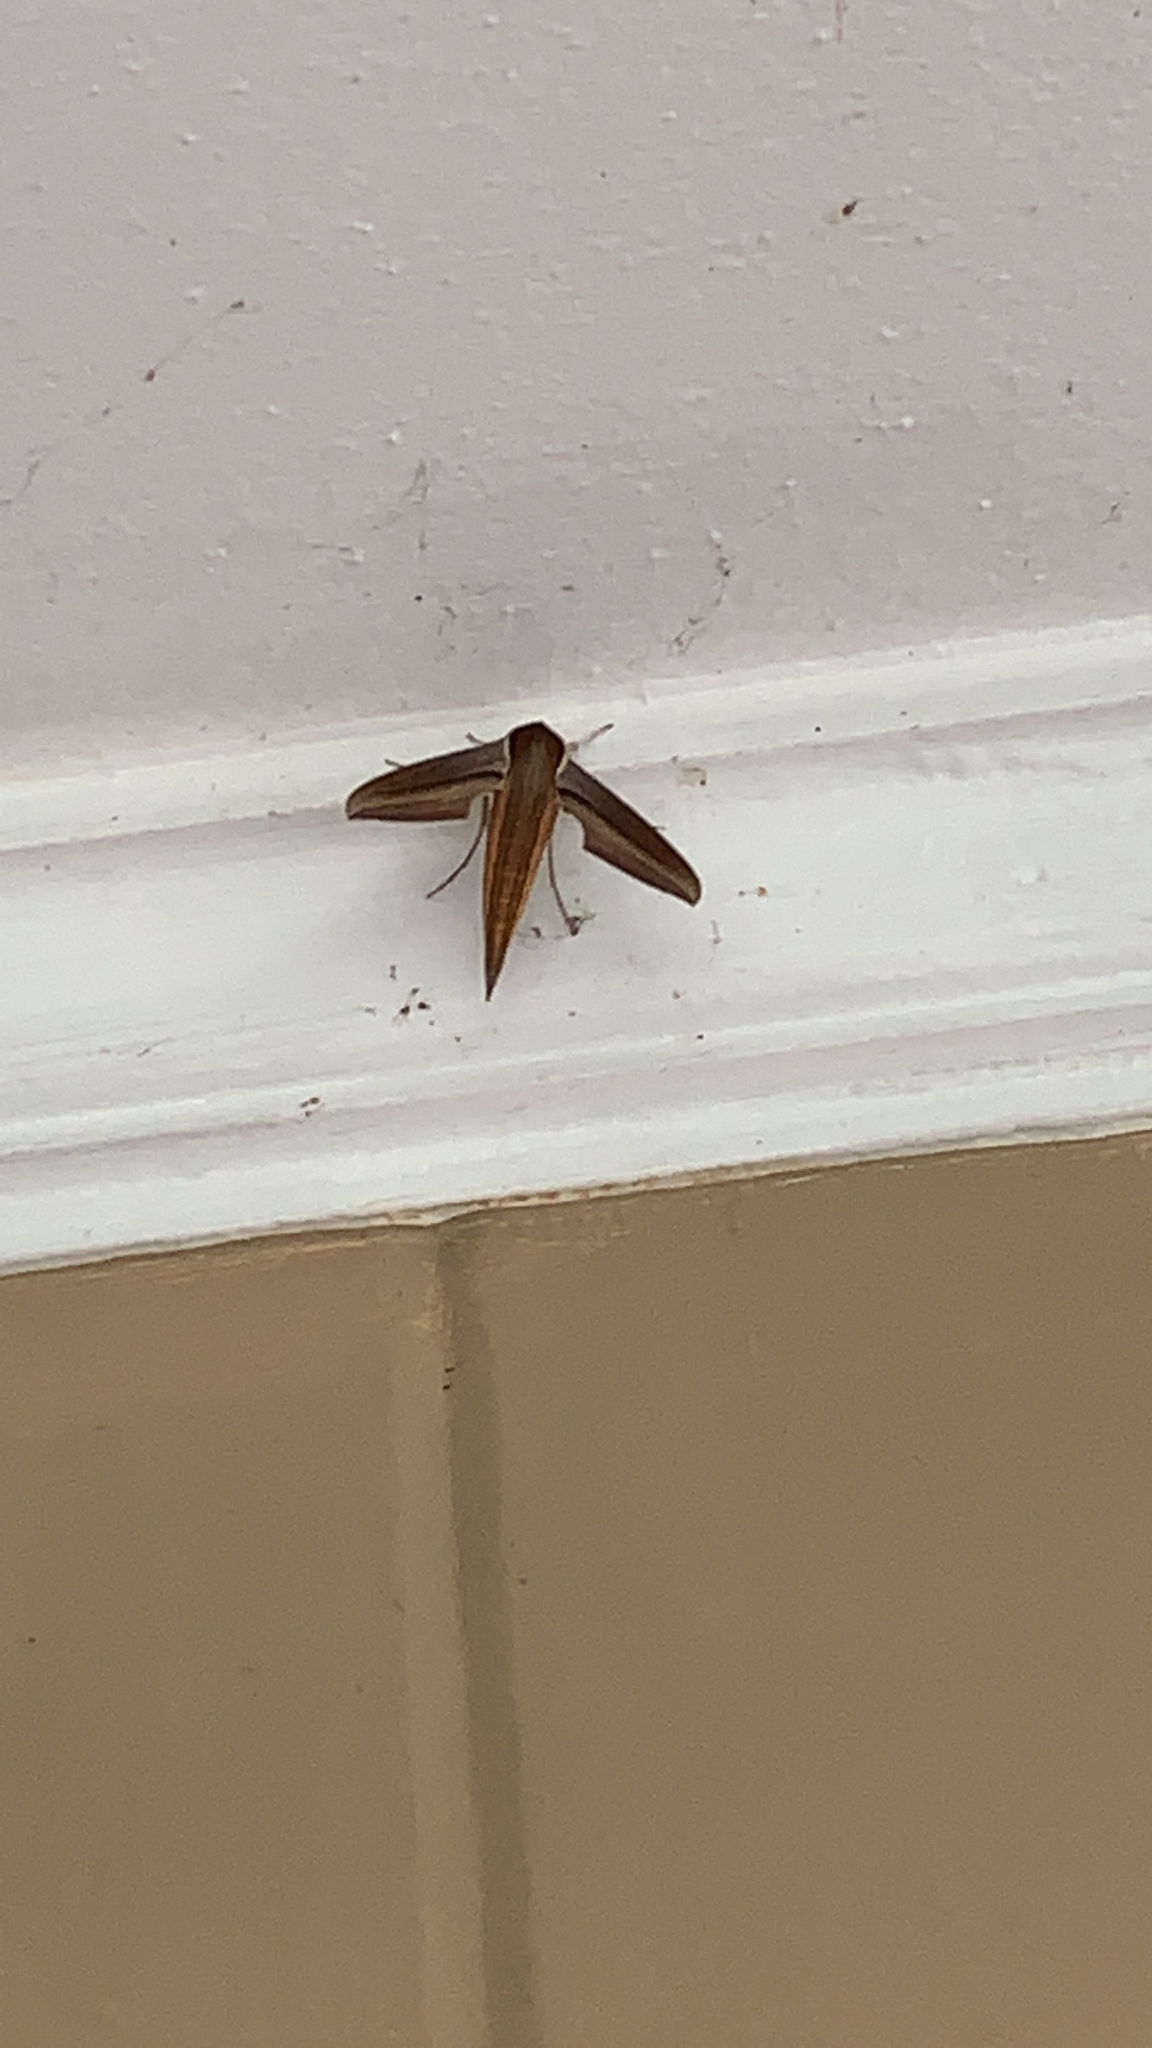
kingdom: Animalia
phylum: Arthropoda
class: Insecta
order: Lepidoptera
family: Sphingidae
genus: Xylophanes
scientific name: Xylophanes tersa
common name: Tersa sphinx
